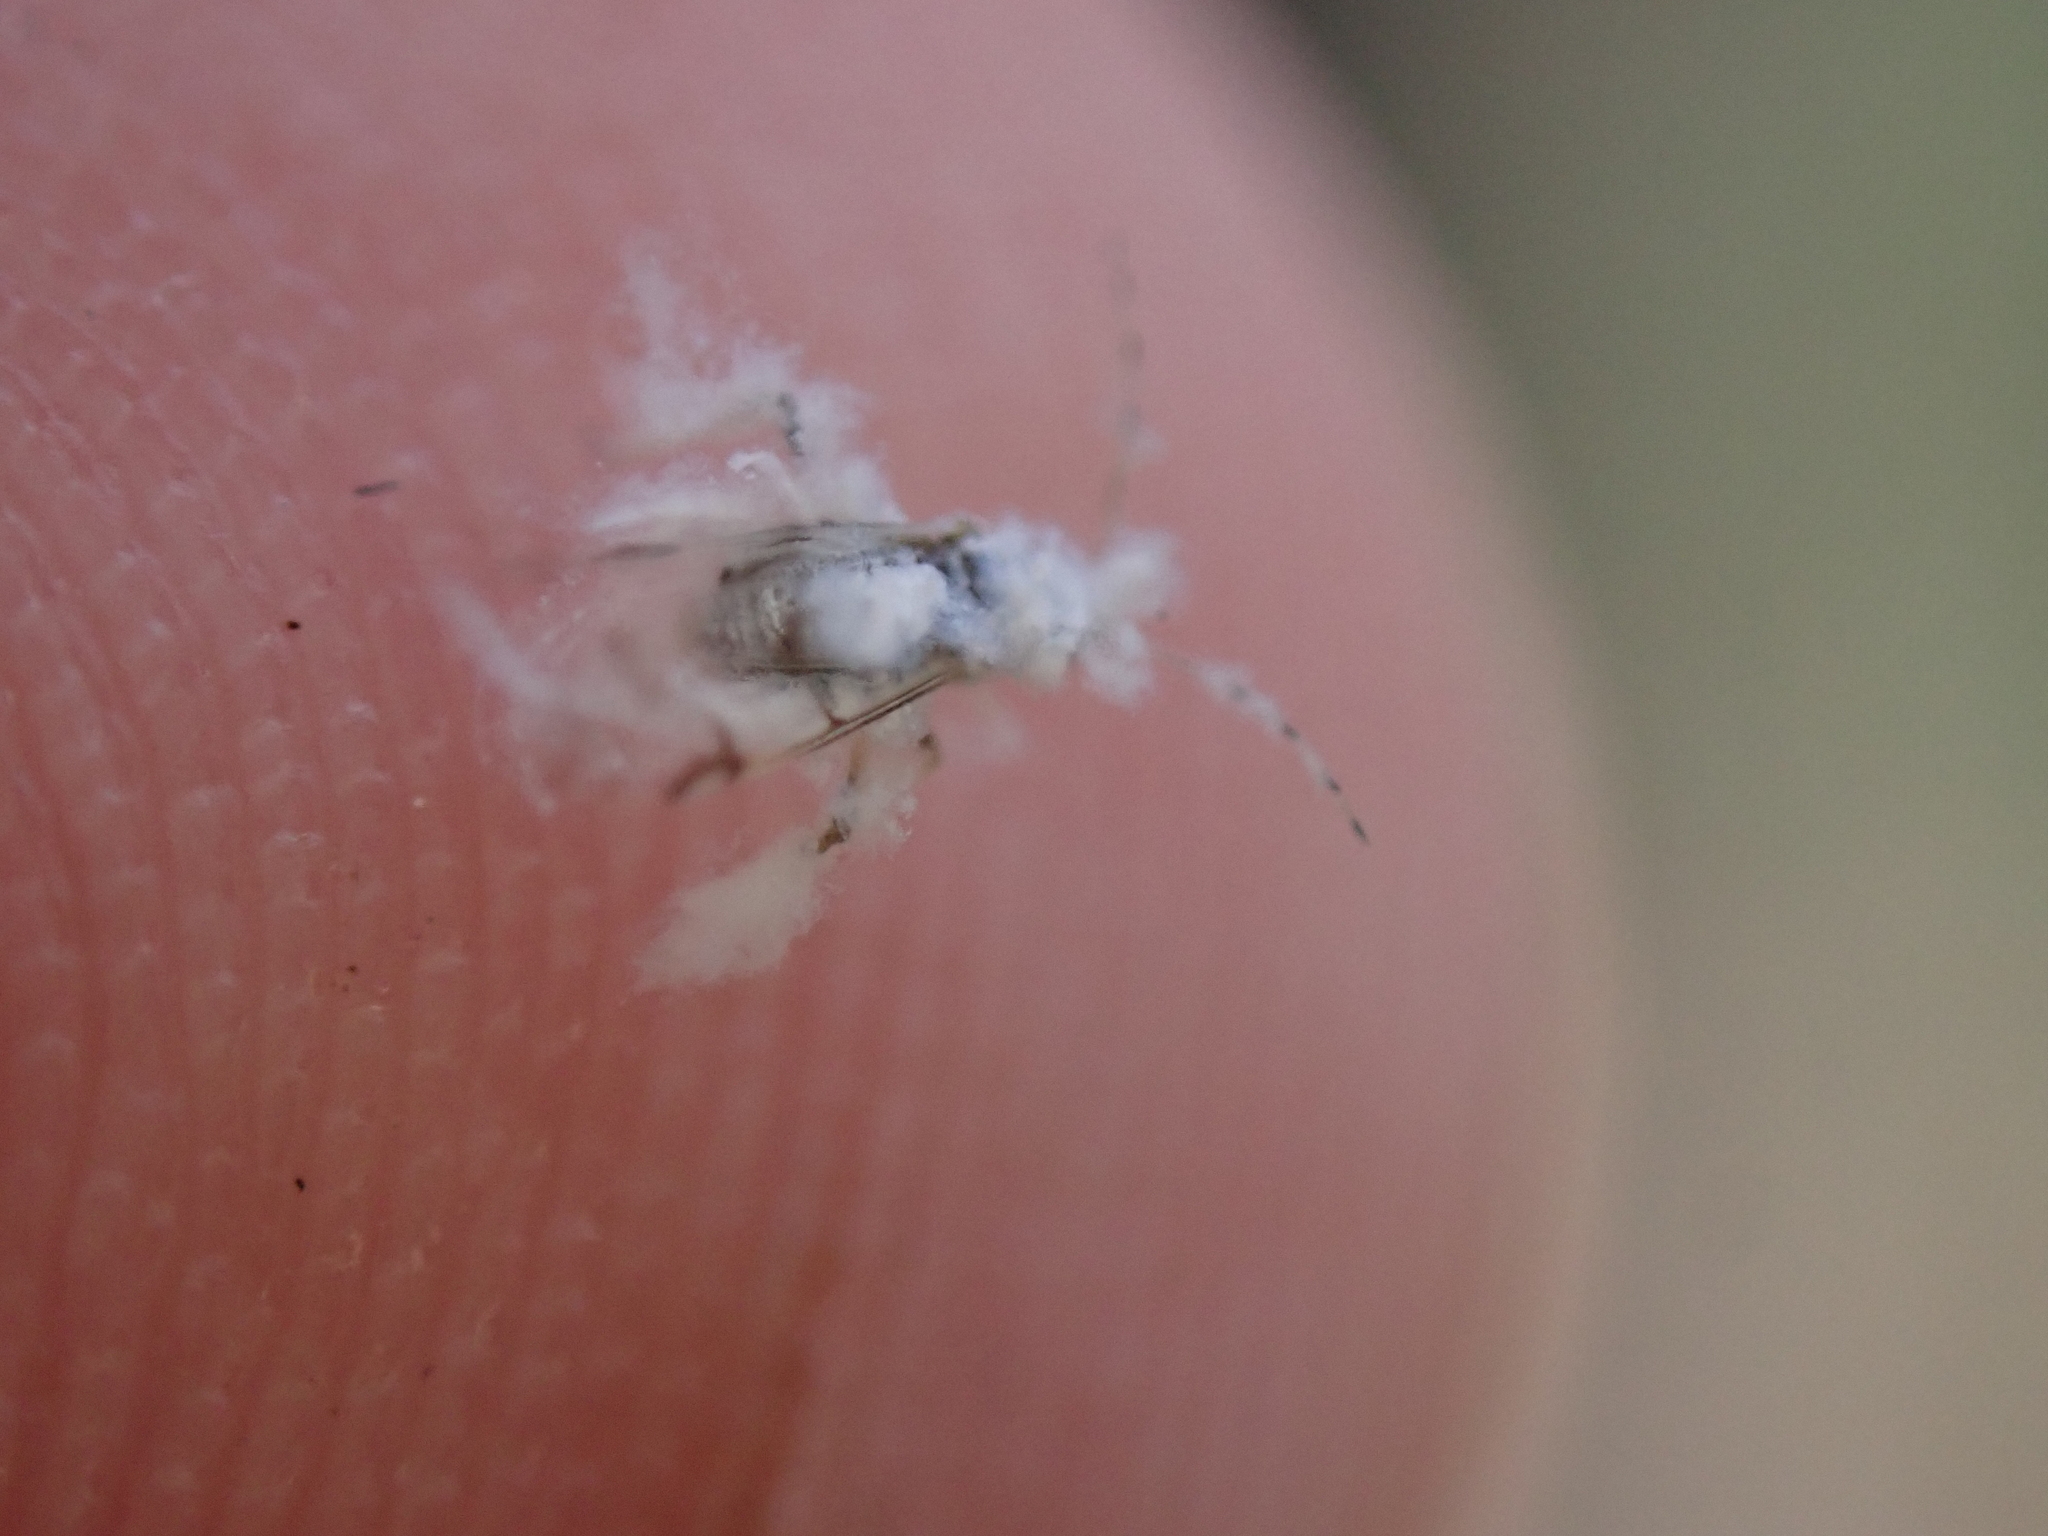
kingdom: Animalia
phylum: Arthropoda
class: Insecta
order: Hemiptera
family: Aphididae
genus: Shivaphis
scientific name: Shivaphis celti
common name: Asian wooly hackberry aphid
